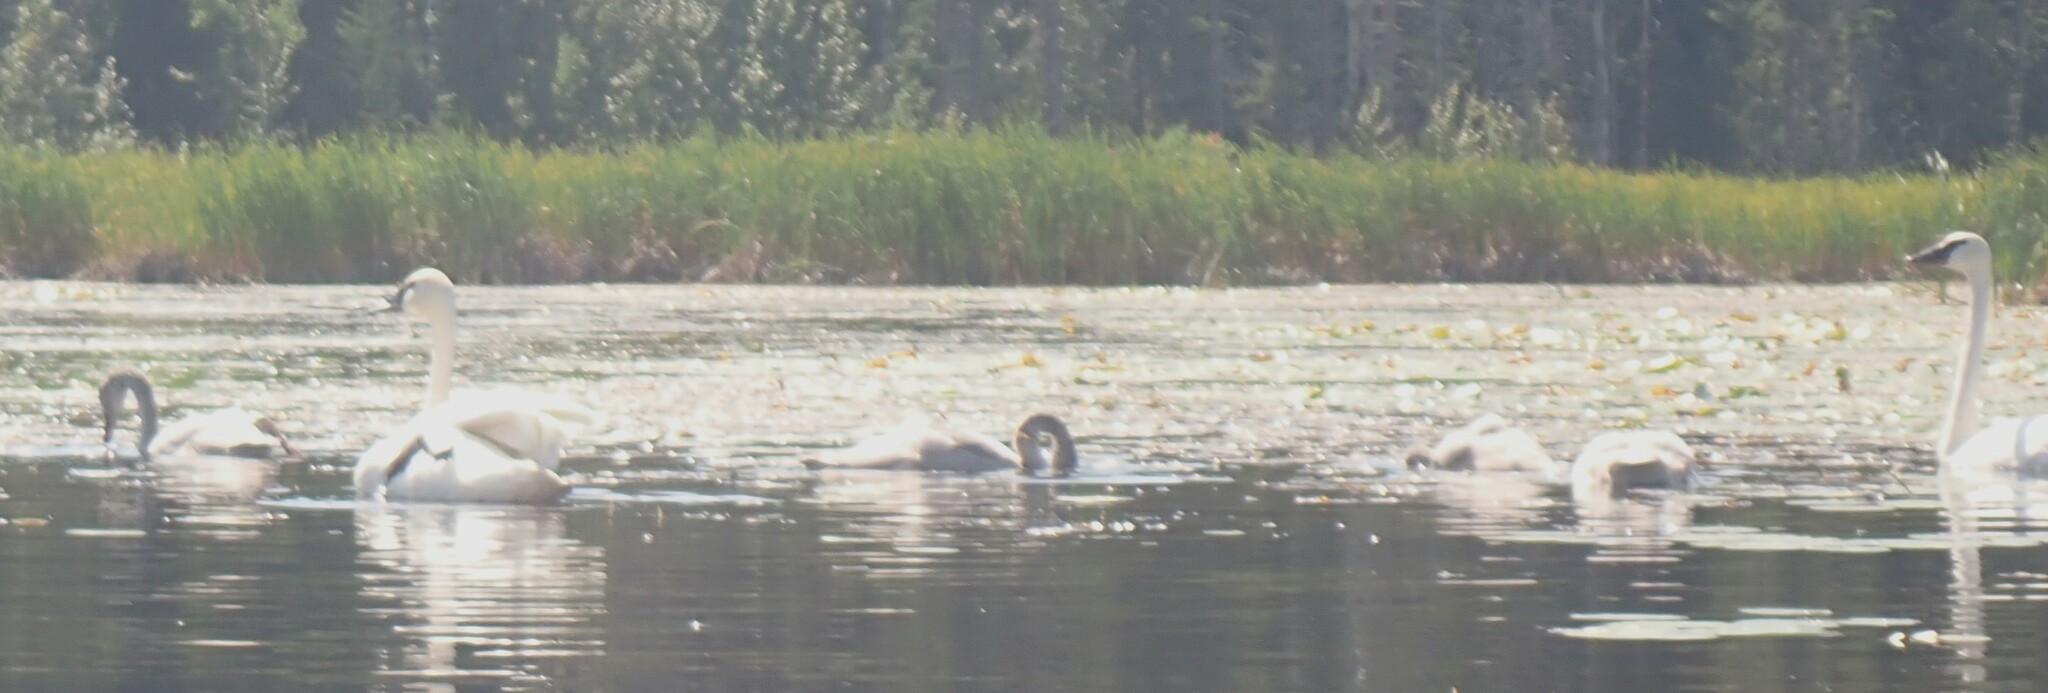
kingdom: Animalia
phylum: Chordata
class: Aves
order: Anseriformes
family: Anatidae
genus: Cygnus
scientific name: Cygnus buccinator
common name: Trumpeter swan
